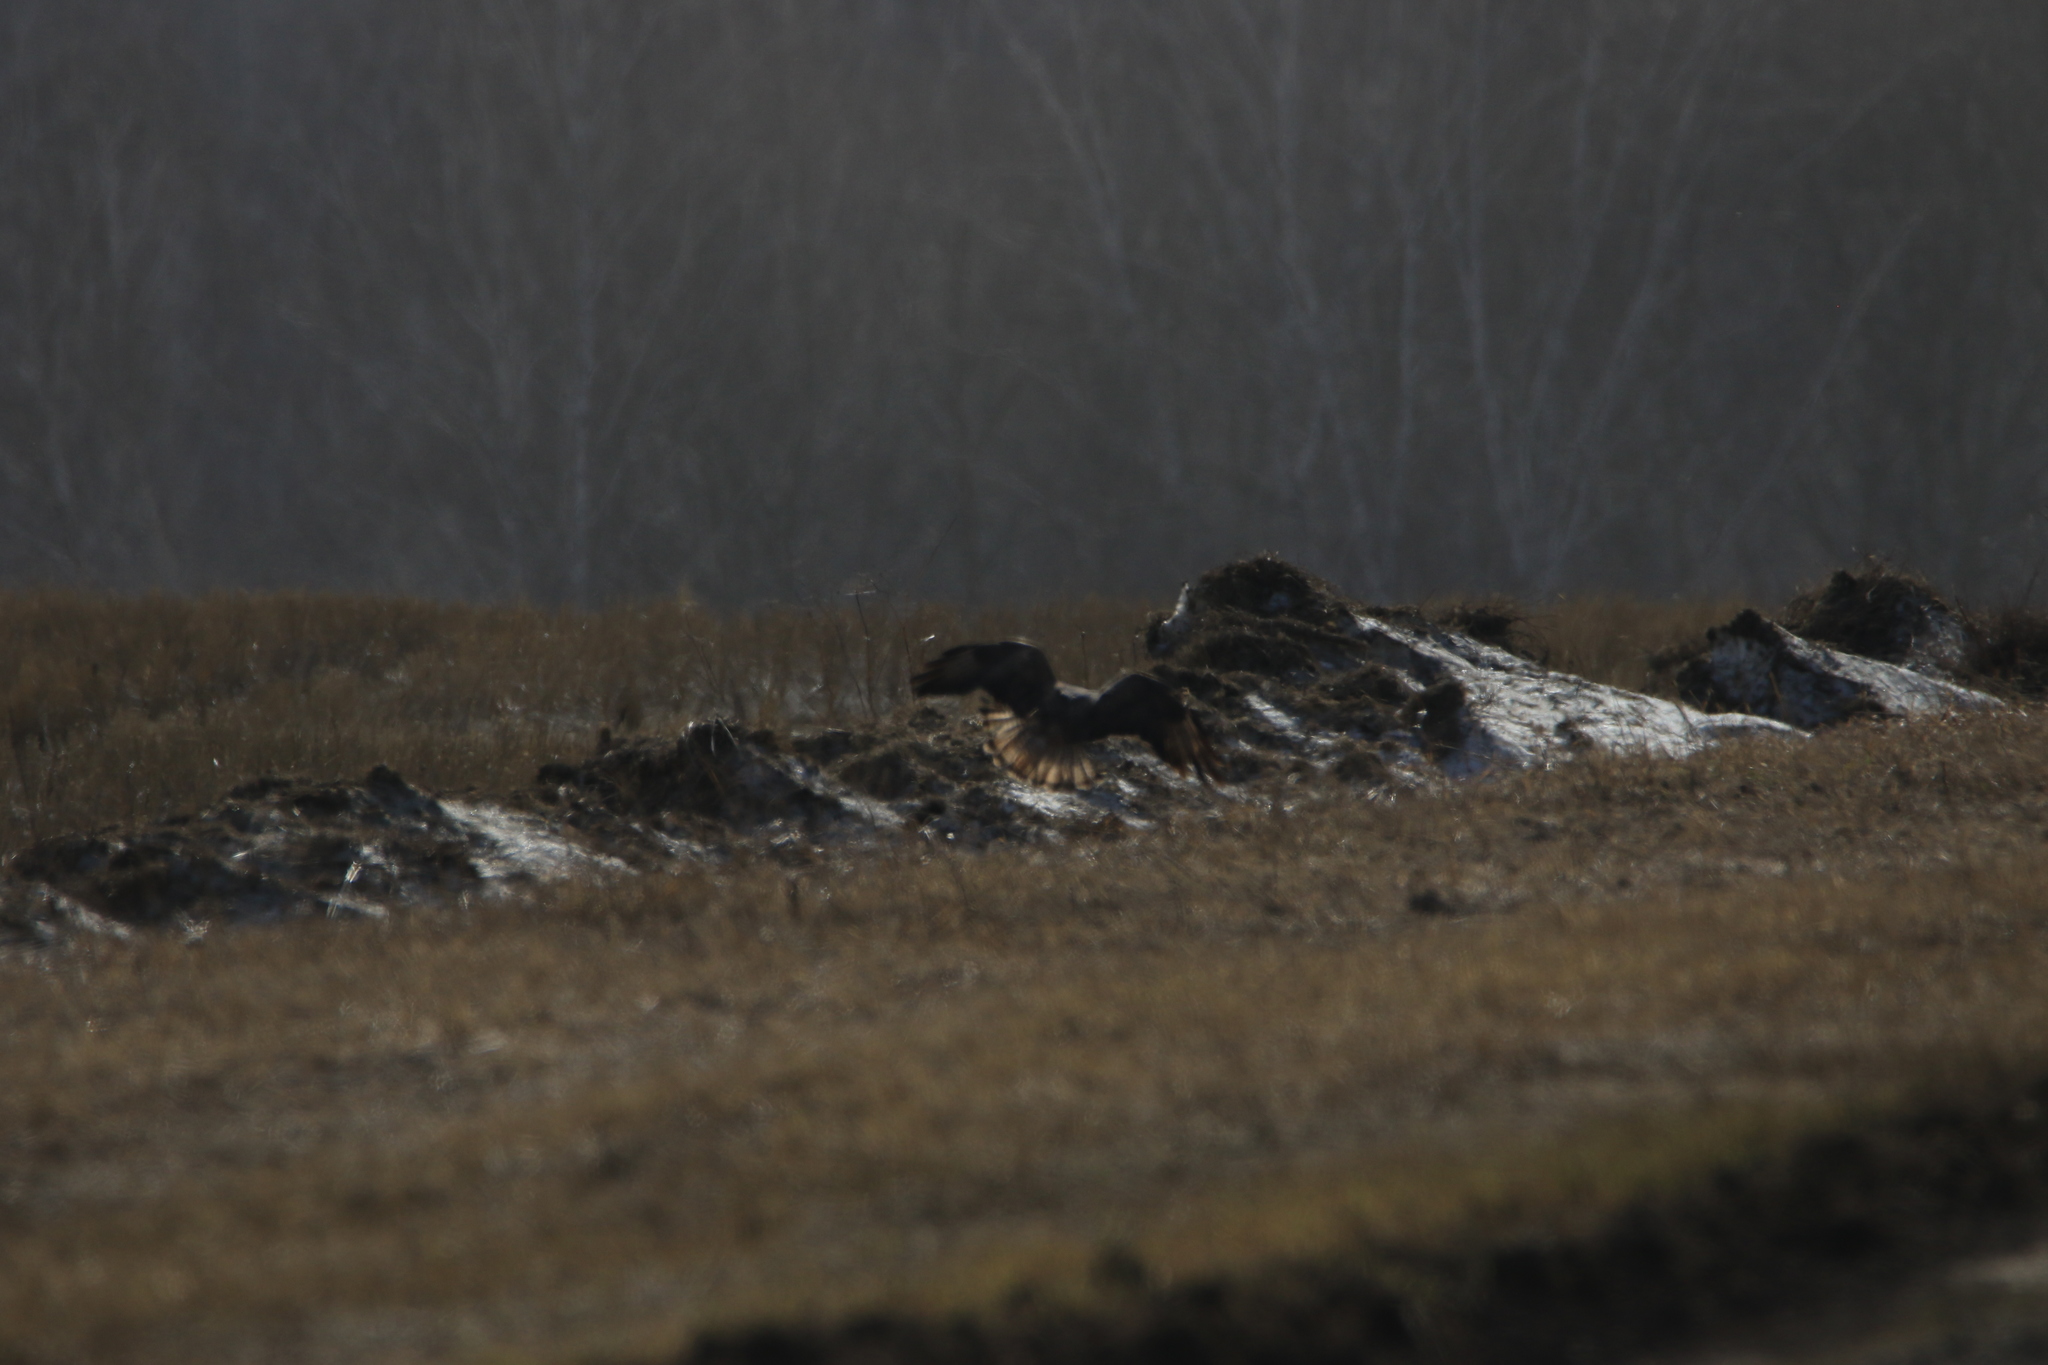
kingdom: Animalia
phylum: Chordata
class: Aves
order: Accipitriformes
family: Accipitridae
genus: Buteo
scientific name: Buteo buteo
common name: Common buzzard
